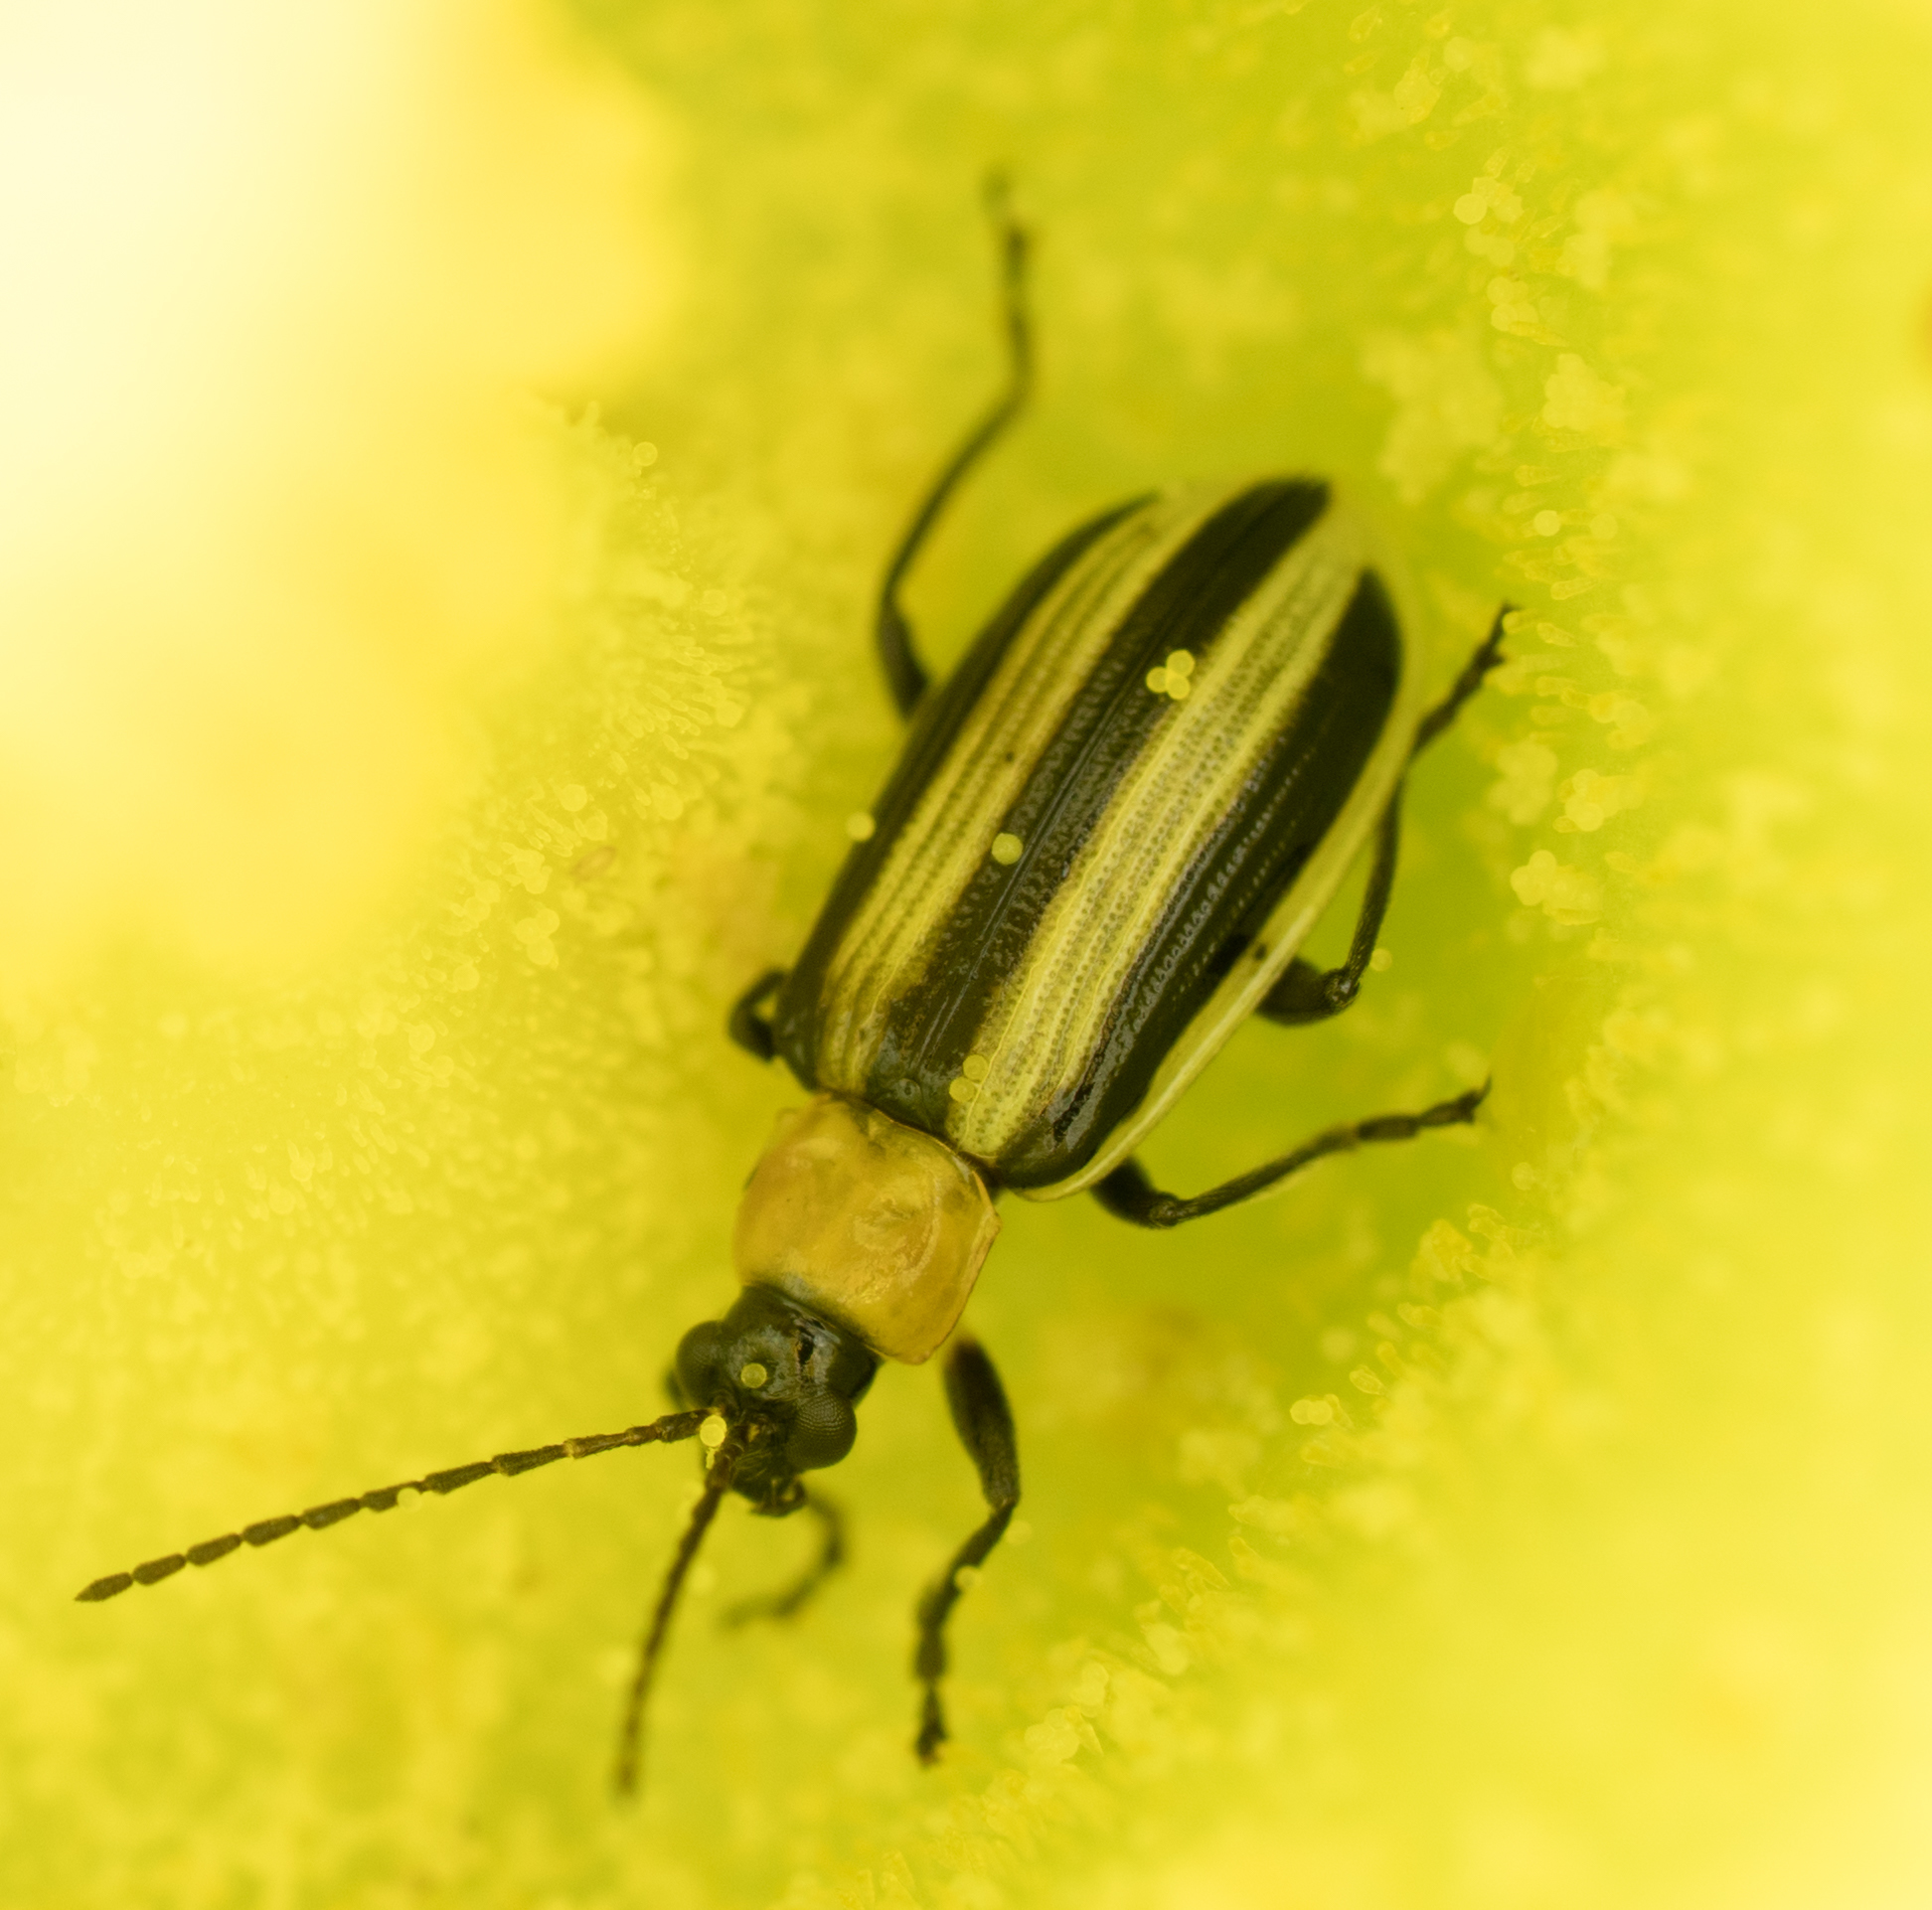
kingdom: Animalia
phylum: Arthropoda
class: Insecta
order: Coleoptera
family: Chrysomelidae
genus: Acalymma
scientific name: Acalymma trivittatum
